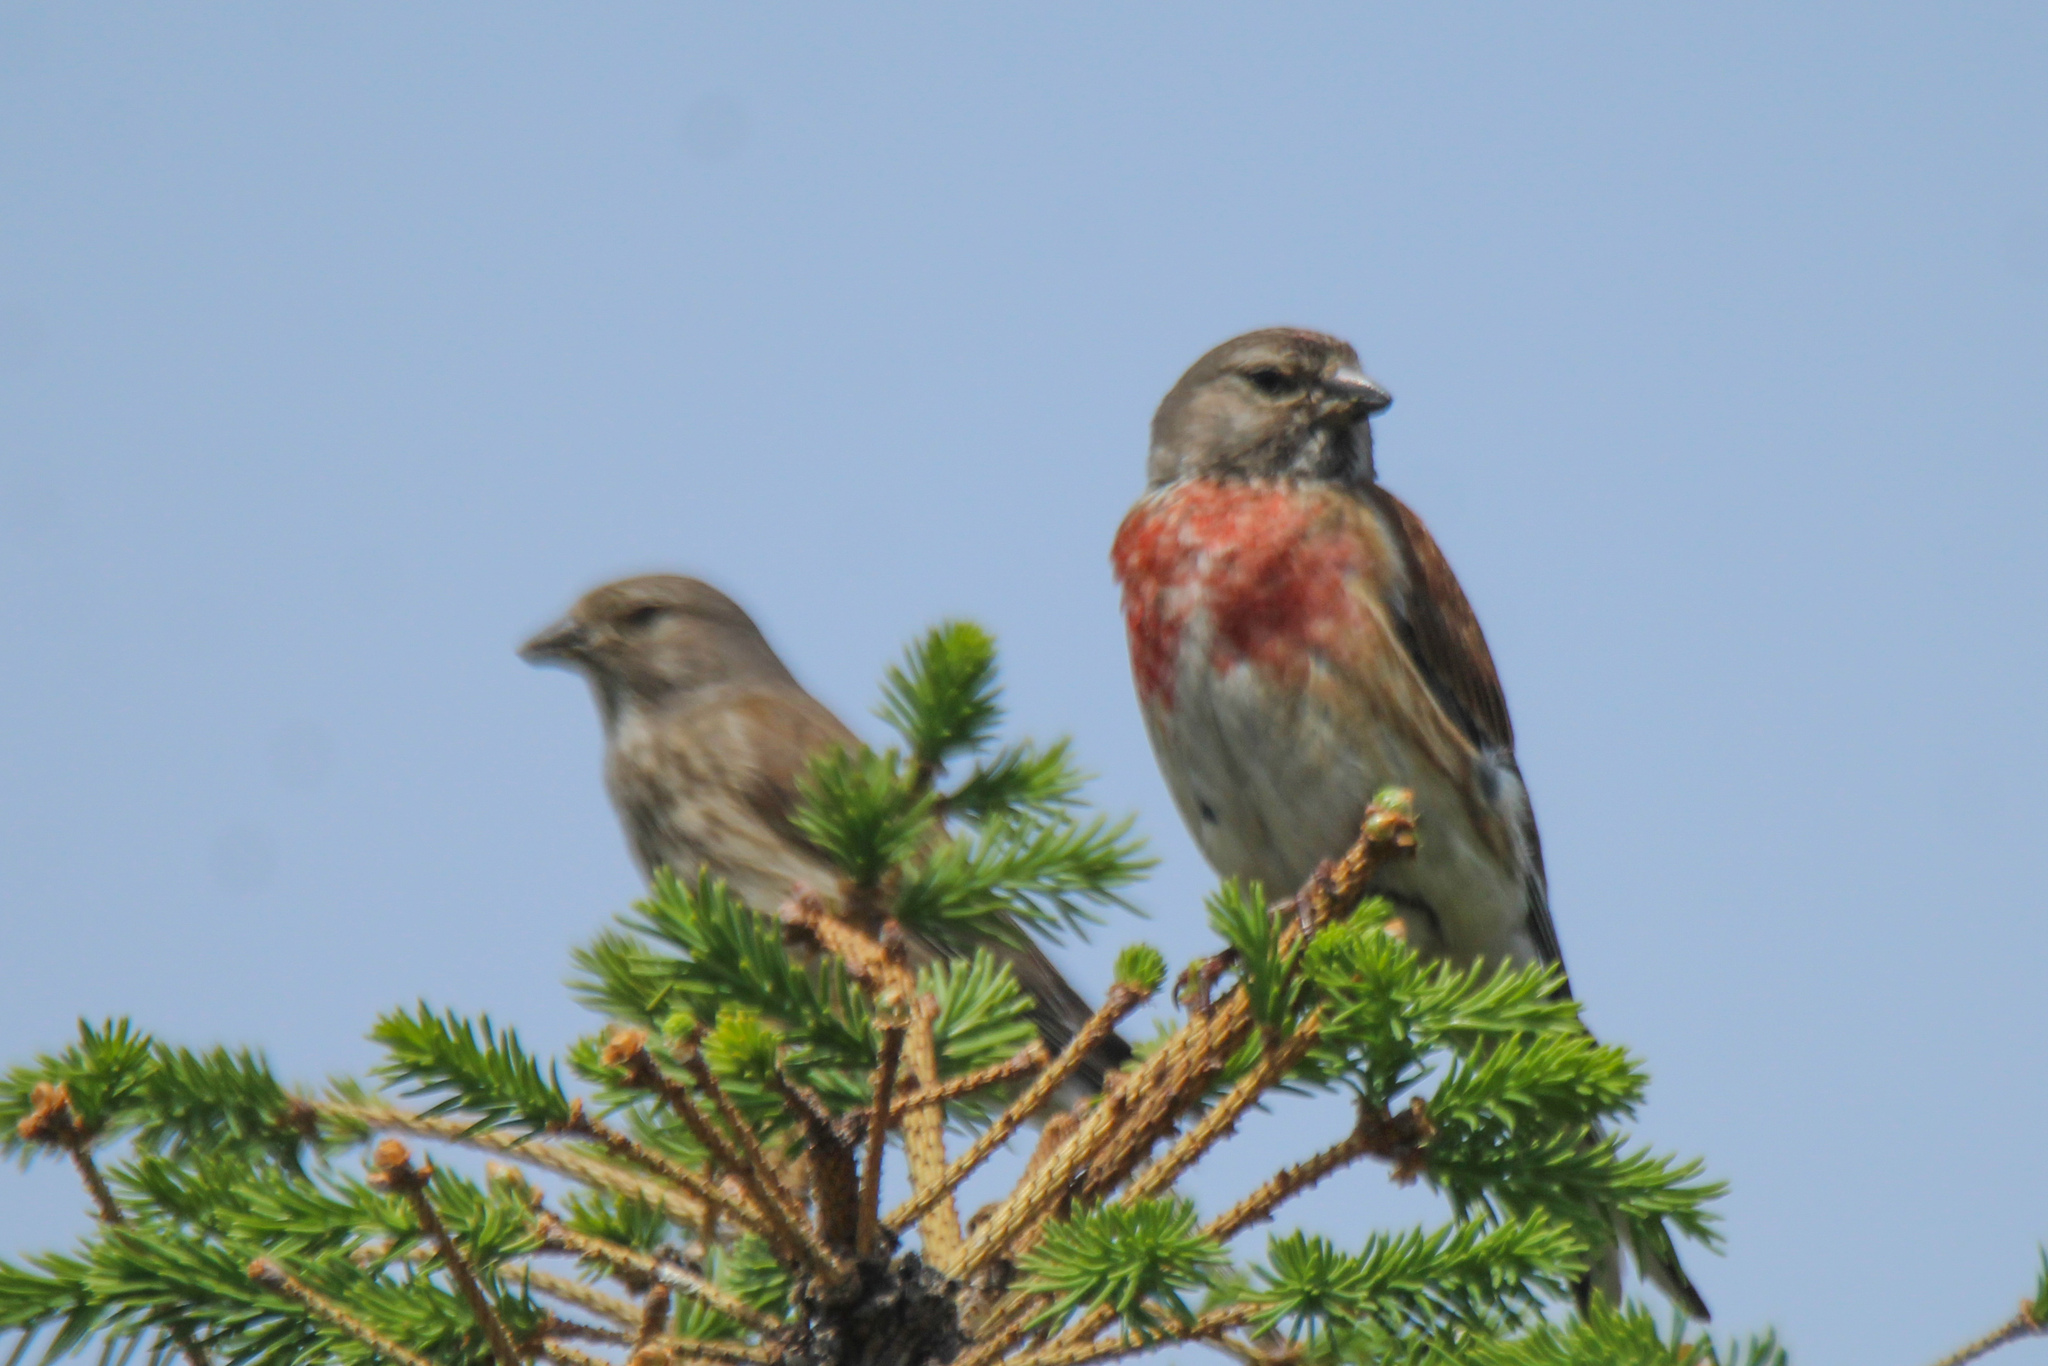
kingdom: Animalia
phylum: Chordata
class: Aves
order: Passeriformes
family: Fringillidae
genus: Linaria
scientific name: Linaria cannabina
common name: Common linnet
